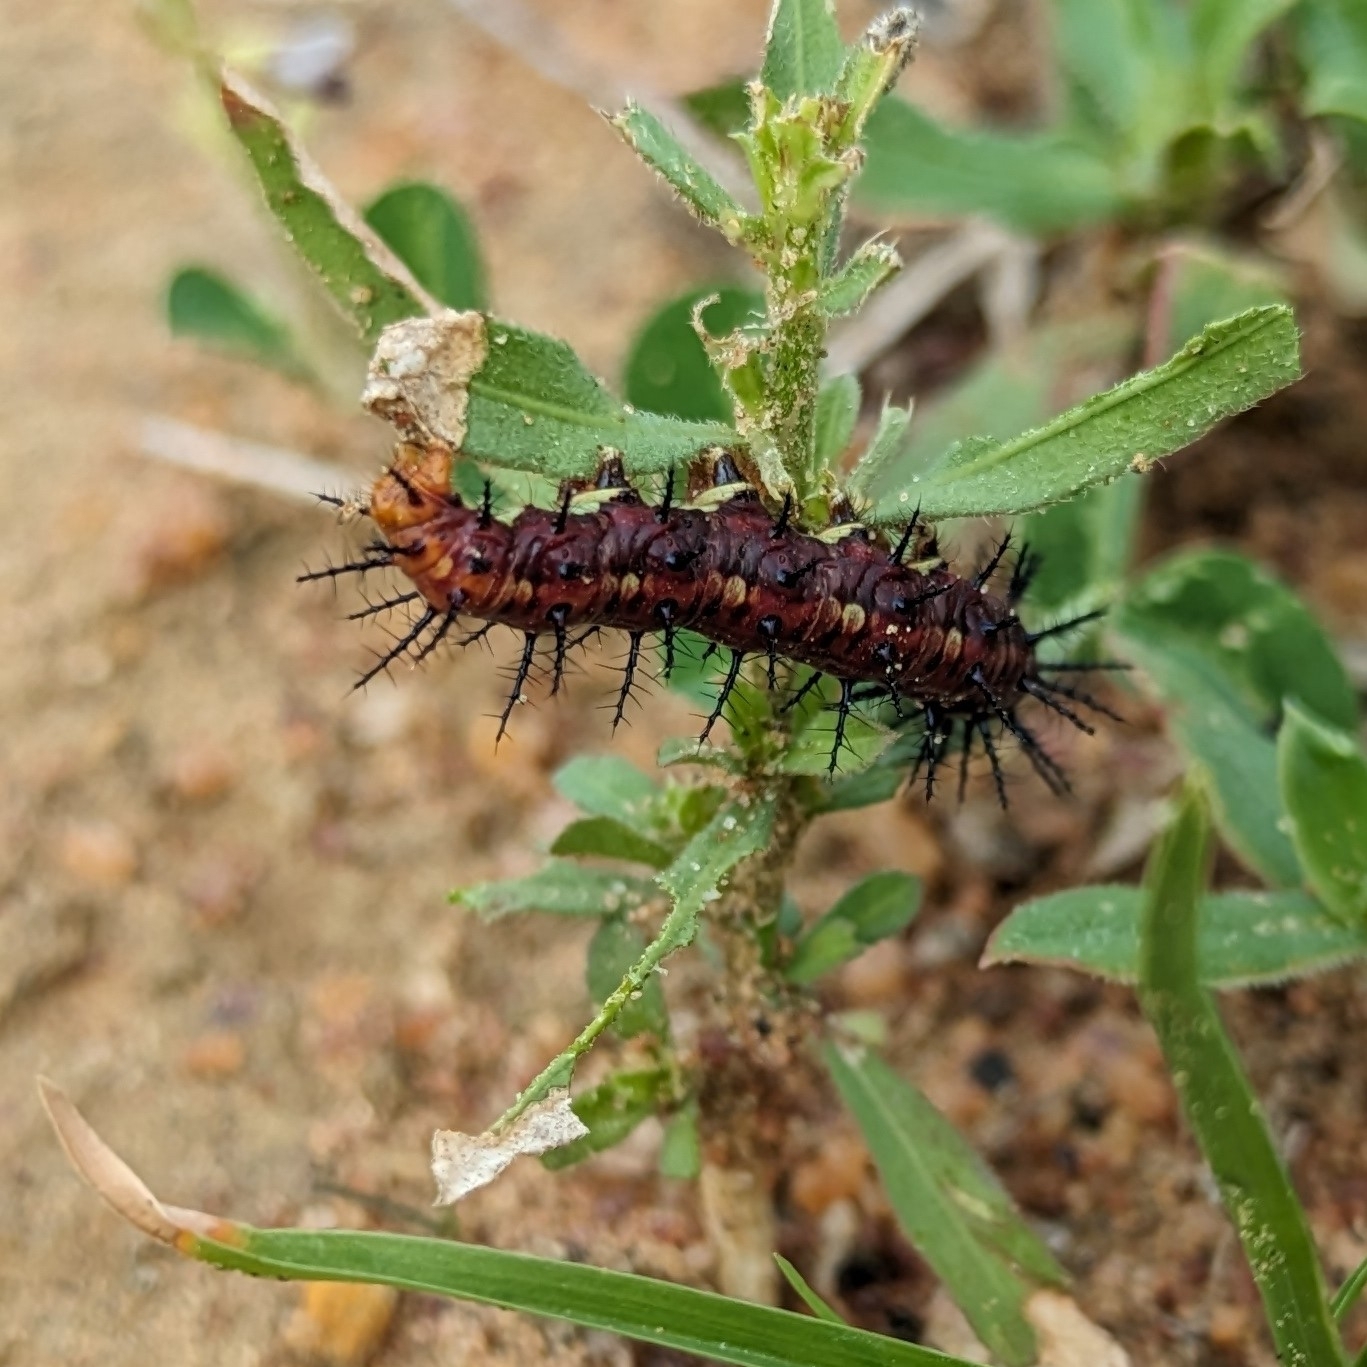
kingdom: Animalia
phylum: Arthropoda
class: Insecta
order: Lepidoptera
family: Nymphalidae
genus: Acraea
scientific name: Acraea terpsicore
